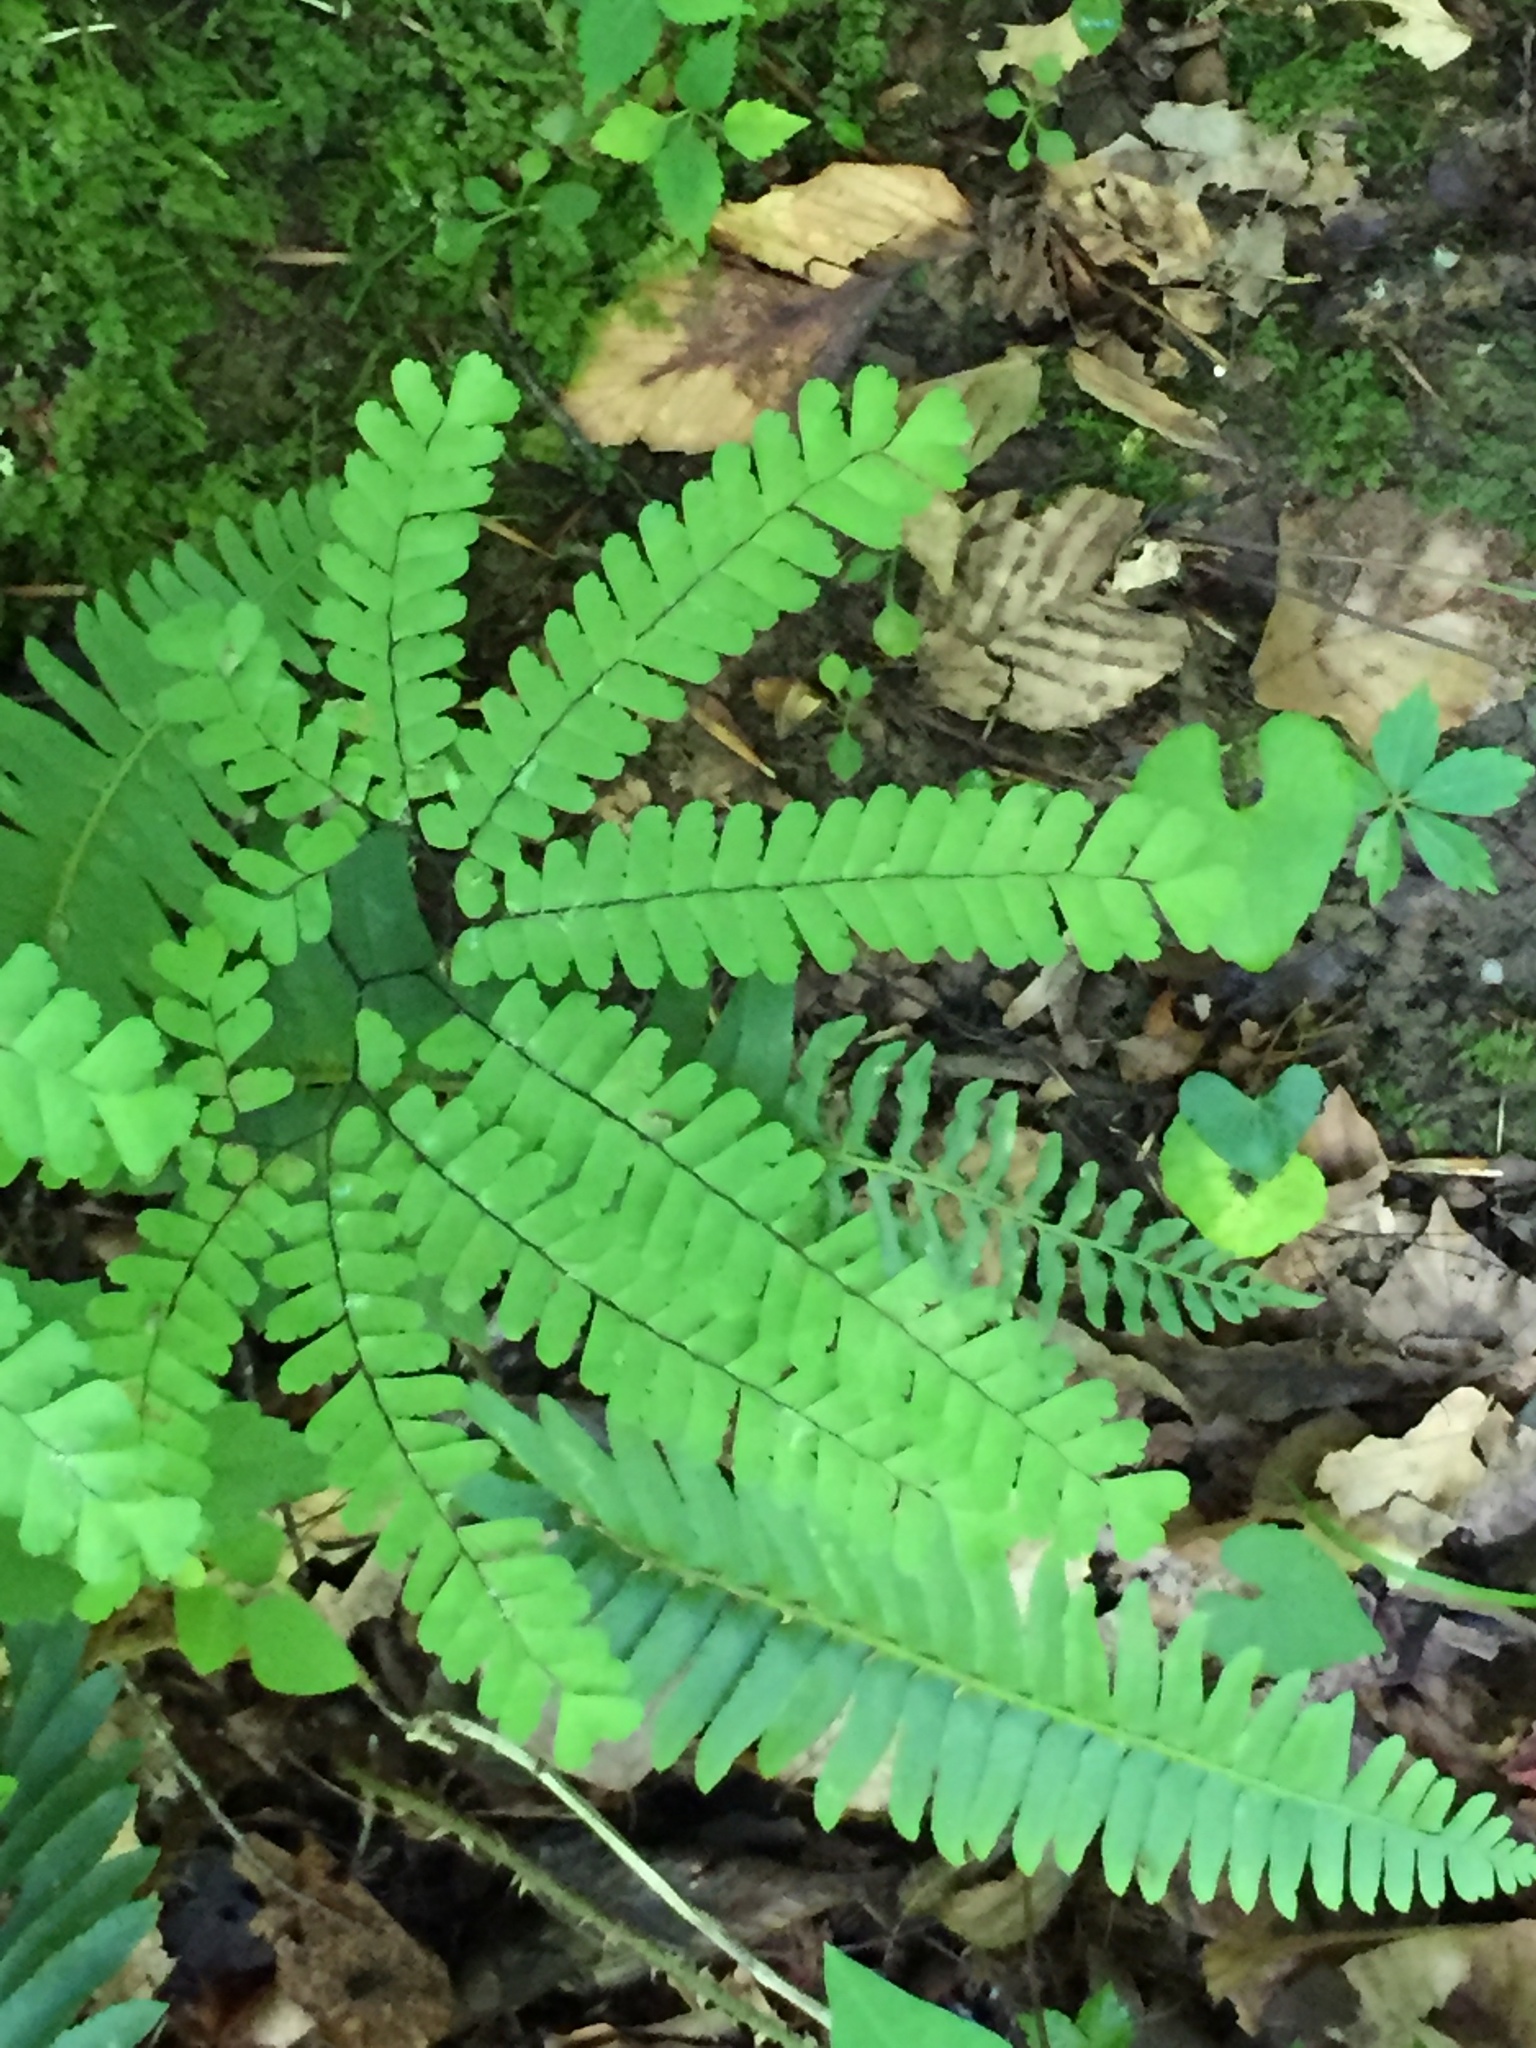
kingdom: Plantae
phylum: Tracheophyta
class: Polypodiopsida
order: Polypodiales
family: Pteridaceae
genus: Adiantum
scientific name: Adiantum pedatum
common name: Five-finger fern
